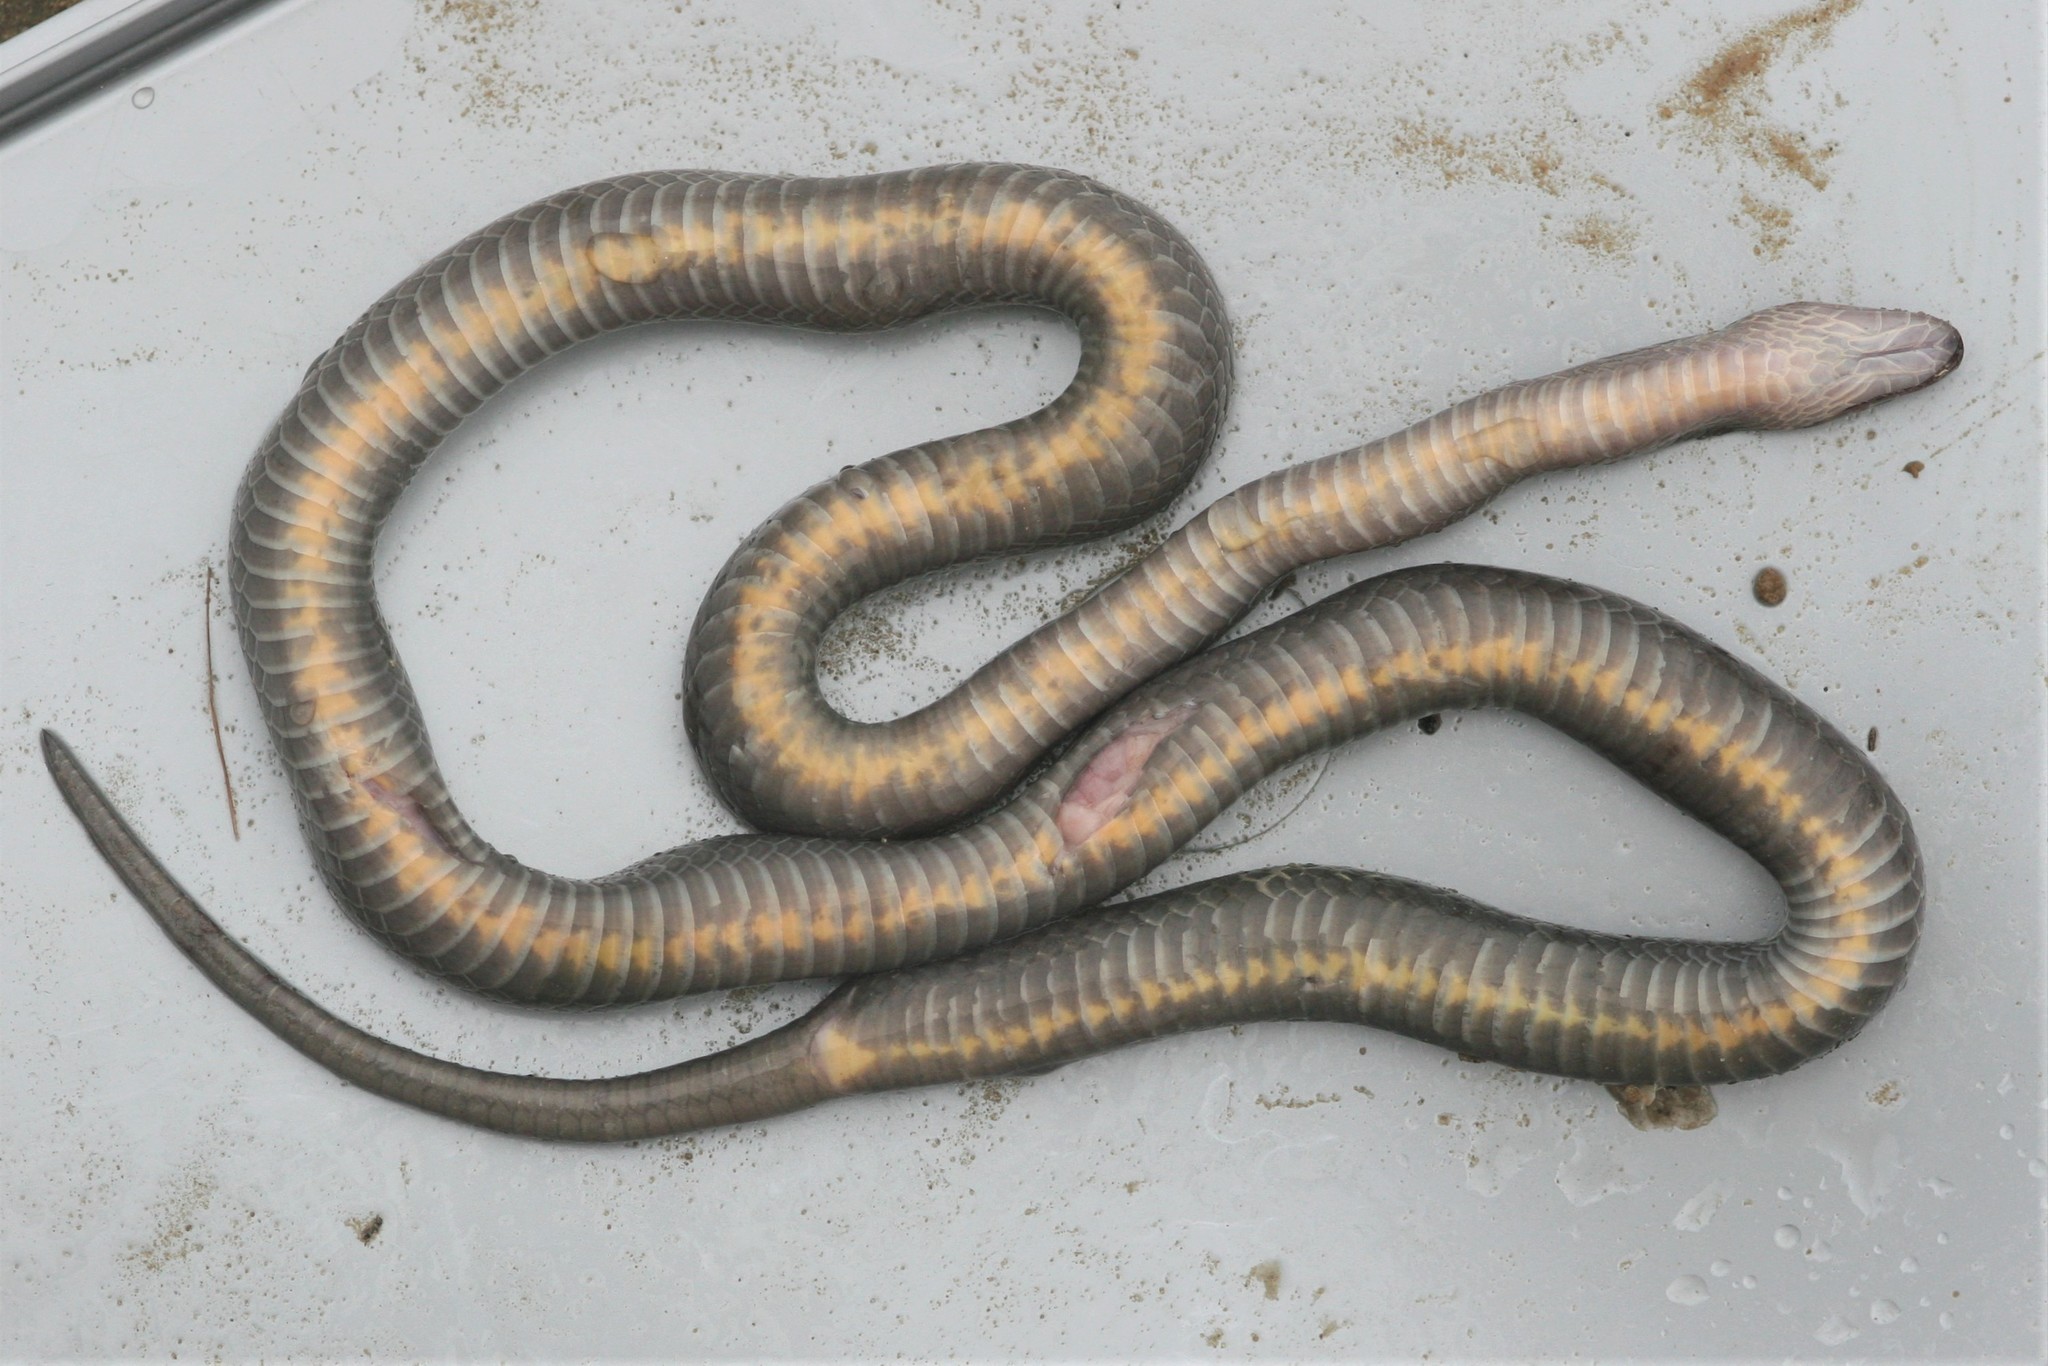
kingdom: Animalia
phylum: Chordata
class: Squamata
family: Lamprophiidae
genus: Boaedon
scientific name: Boaedon virgatus
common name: Hallowell's house snake
